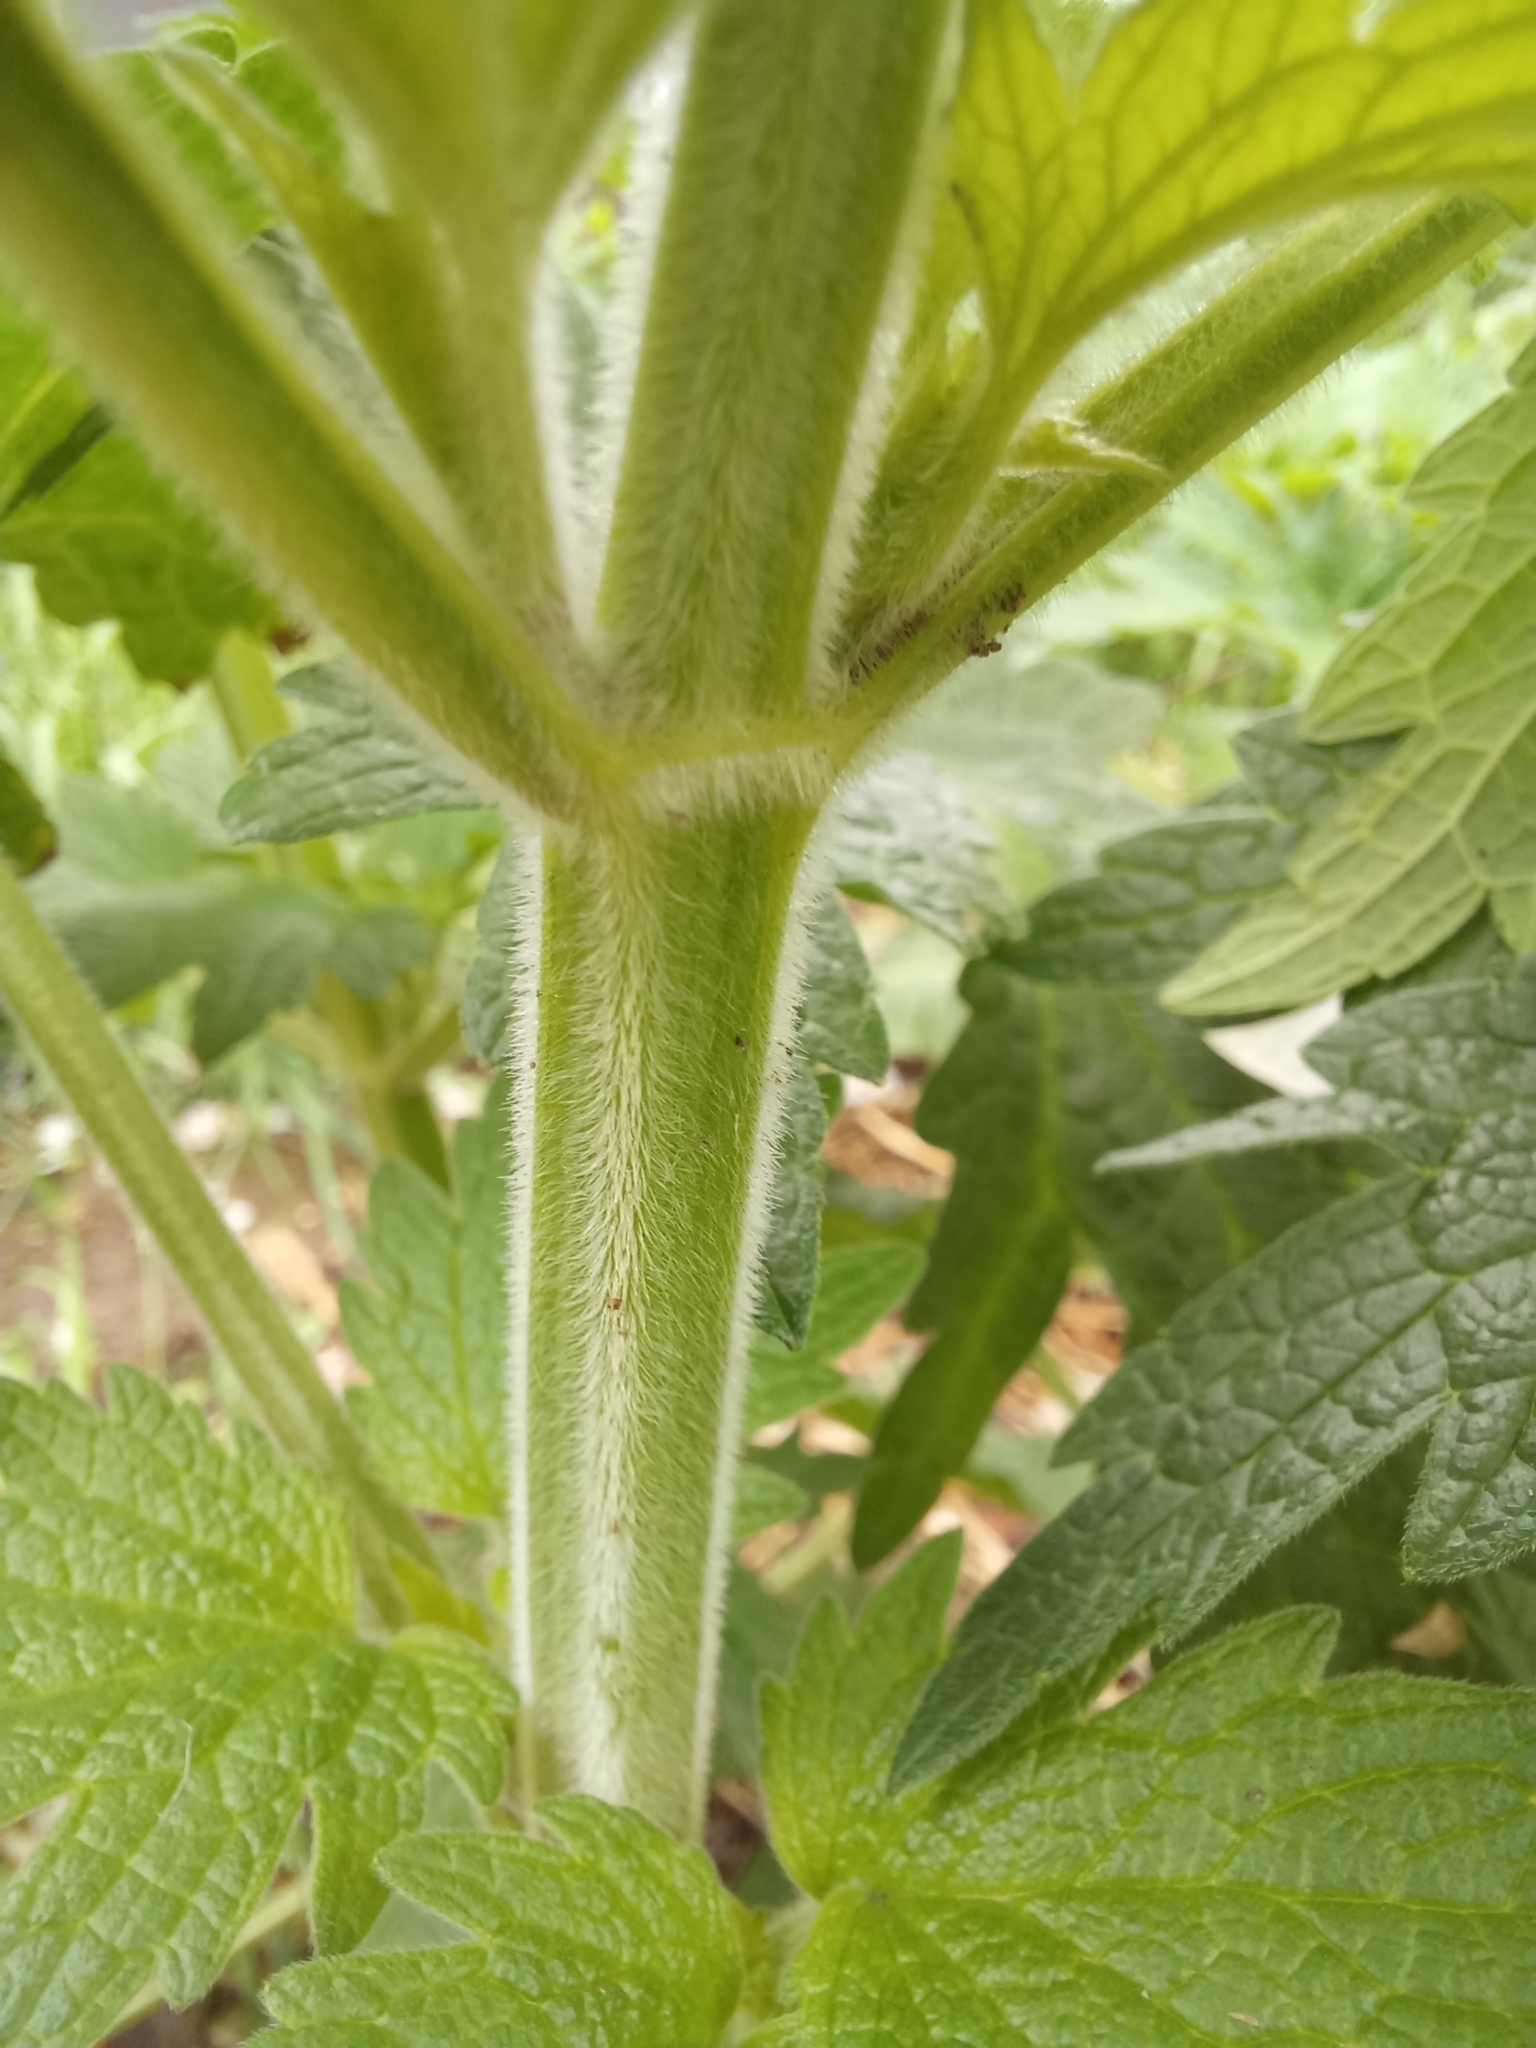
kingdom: Plantae
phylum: Tracheophyta
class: Magnoliopsida
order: Lamiales
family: Lamiaceae
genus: Leonurus
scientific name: Leonurus quinquelobatus
